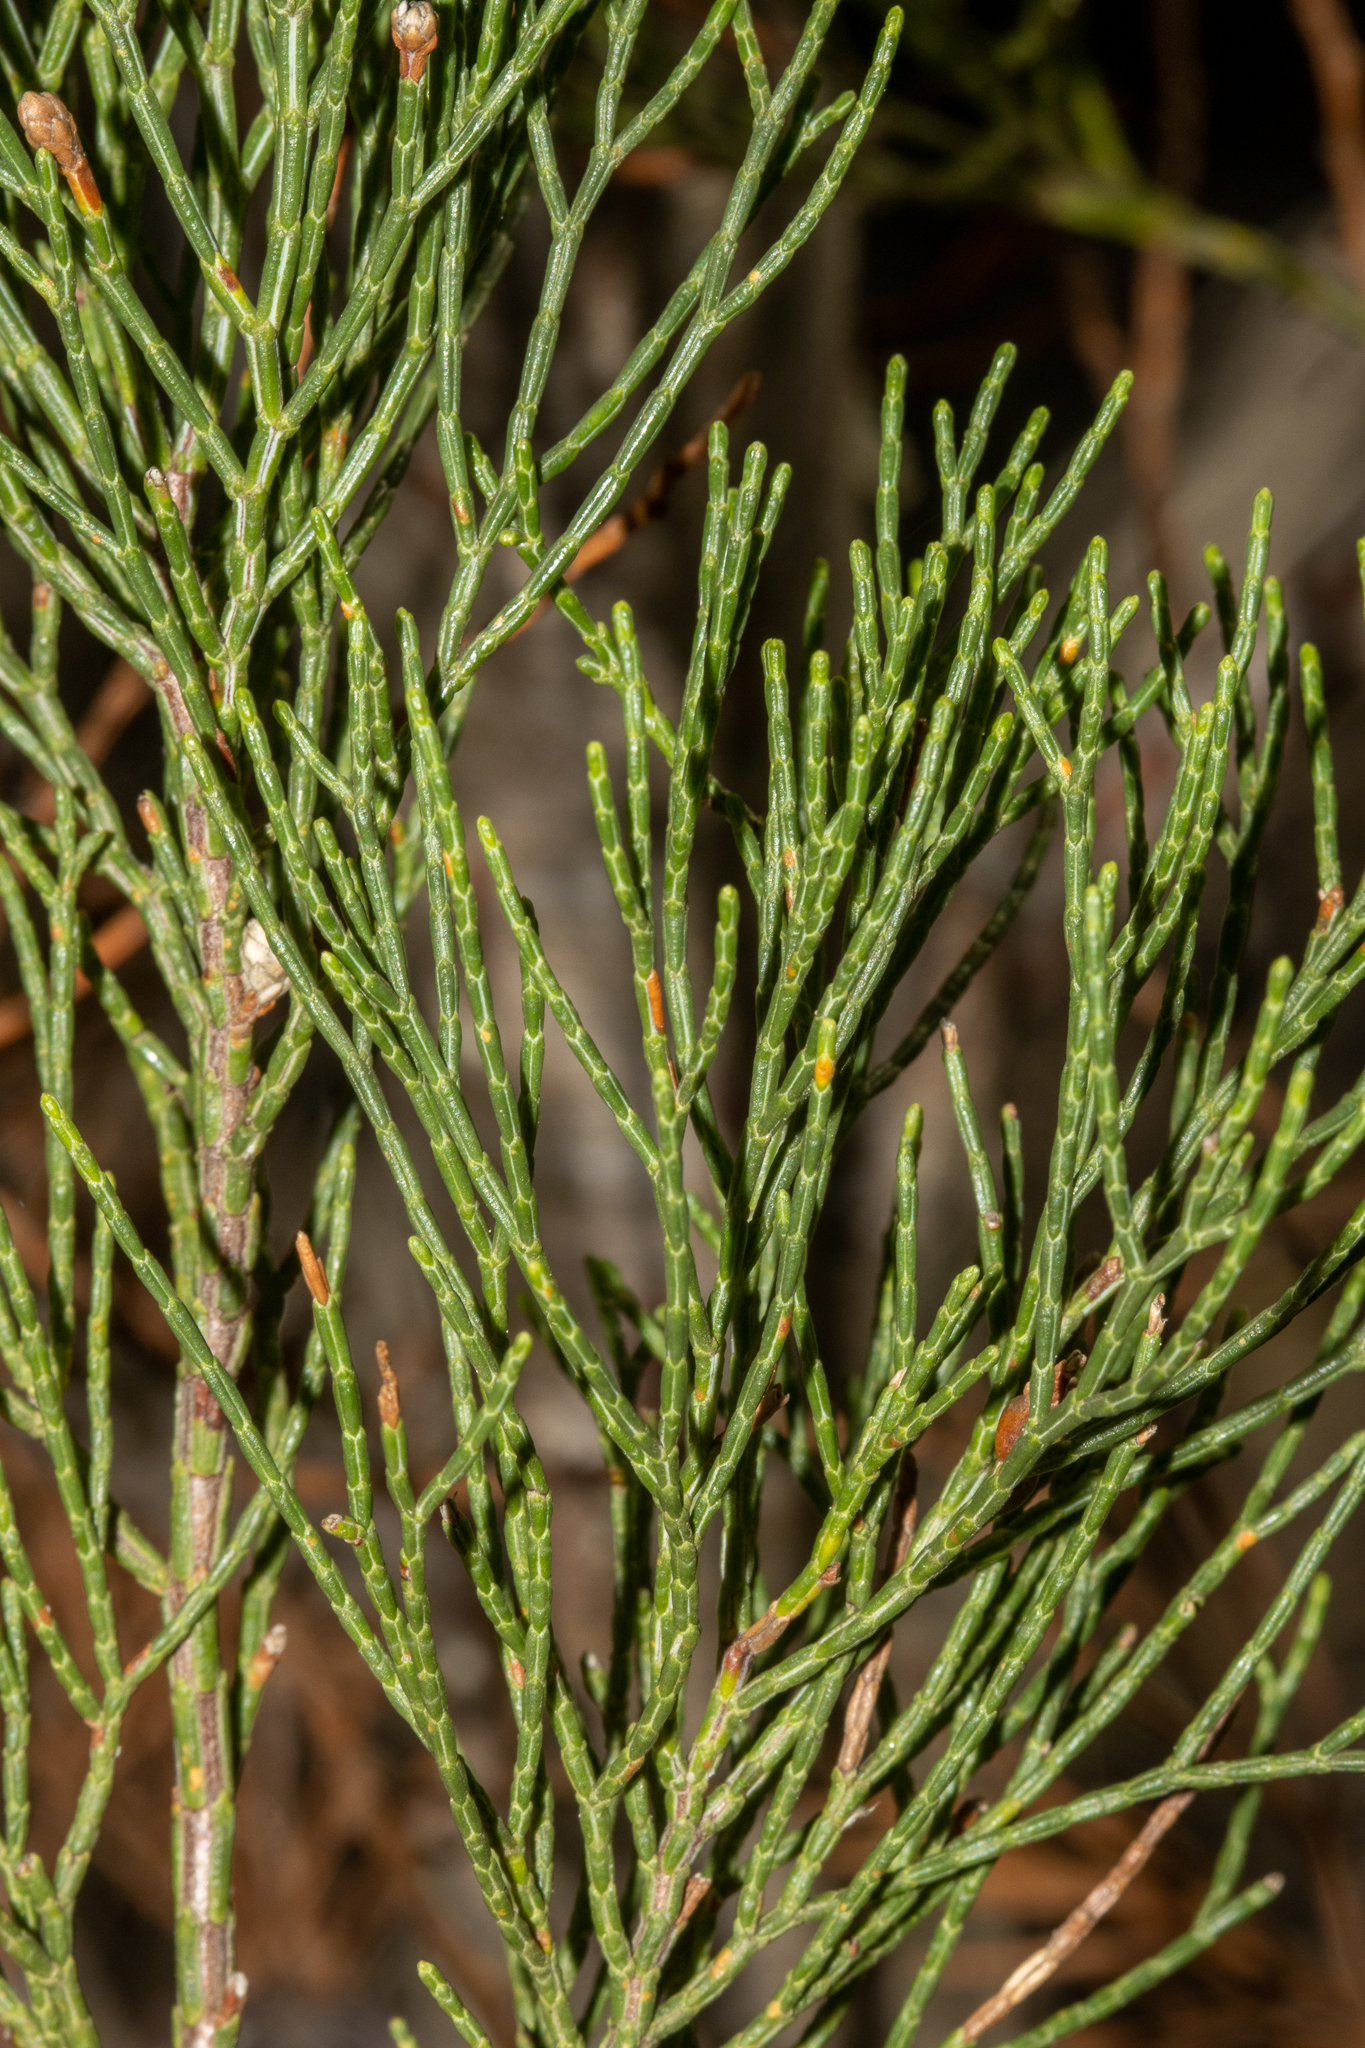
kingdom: Plantae
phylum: Tracheophyta
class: Pinopsida
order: Pinales
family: Cupressaceae
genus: Callitris
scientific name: Callitris preissii
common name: Mallee pine
